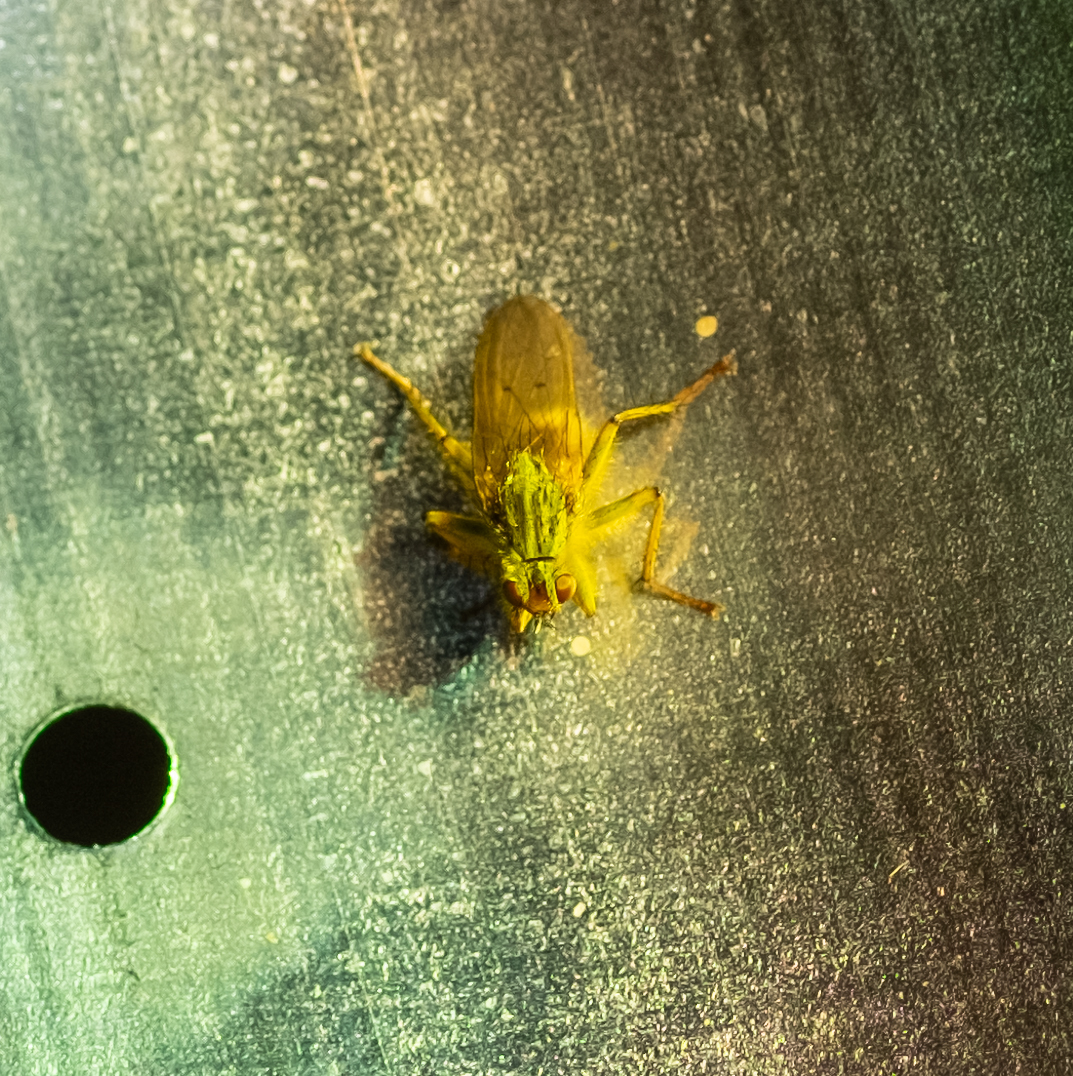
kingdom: Animalia
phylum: Arthropoda
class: Insecta
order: Diptera
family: Scathophagidae
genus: Scathophaga
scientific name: Scathophaga stercoraria
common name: Yellow dung fly
